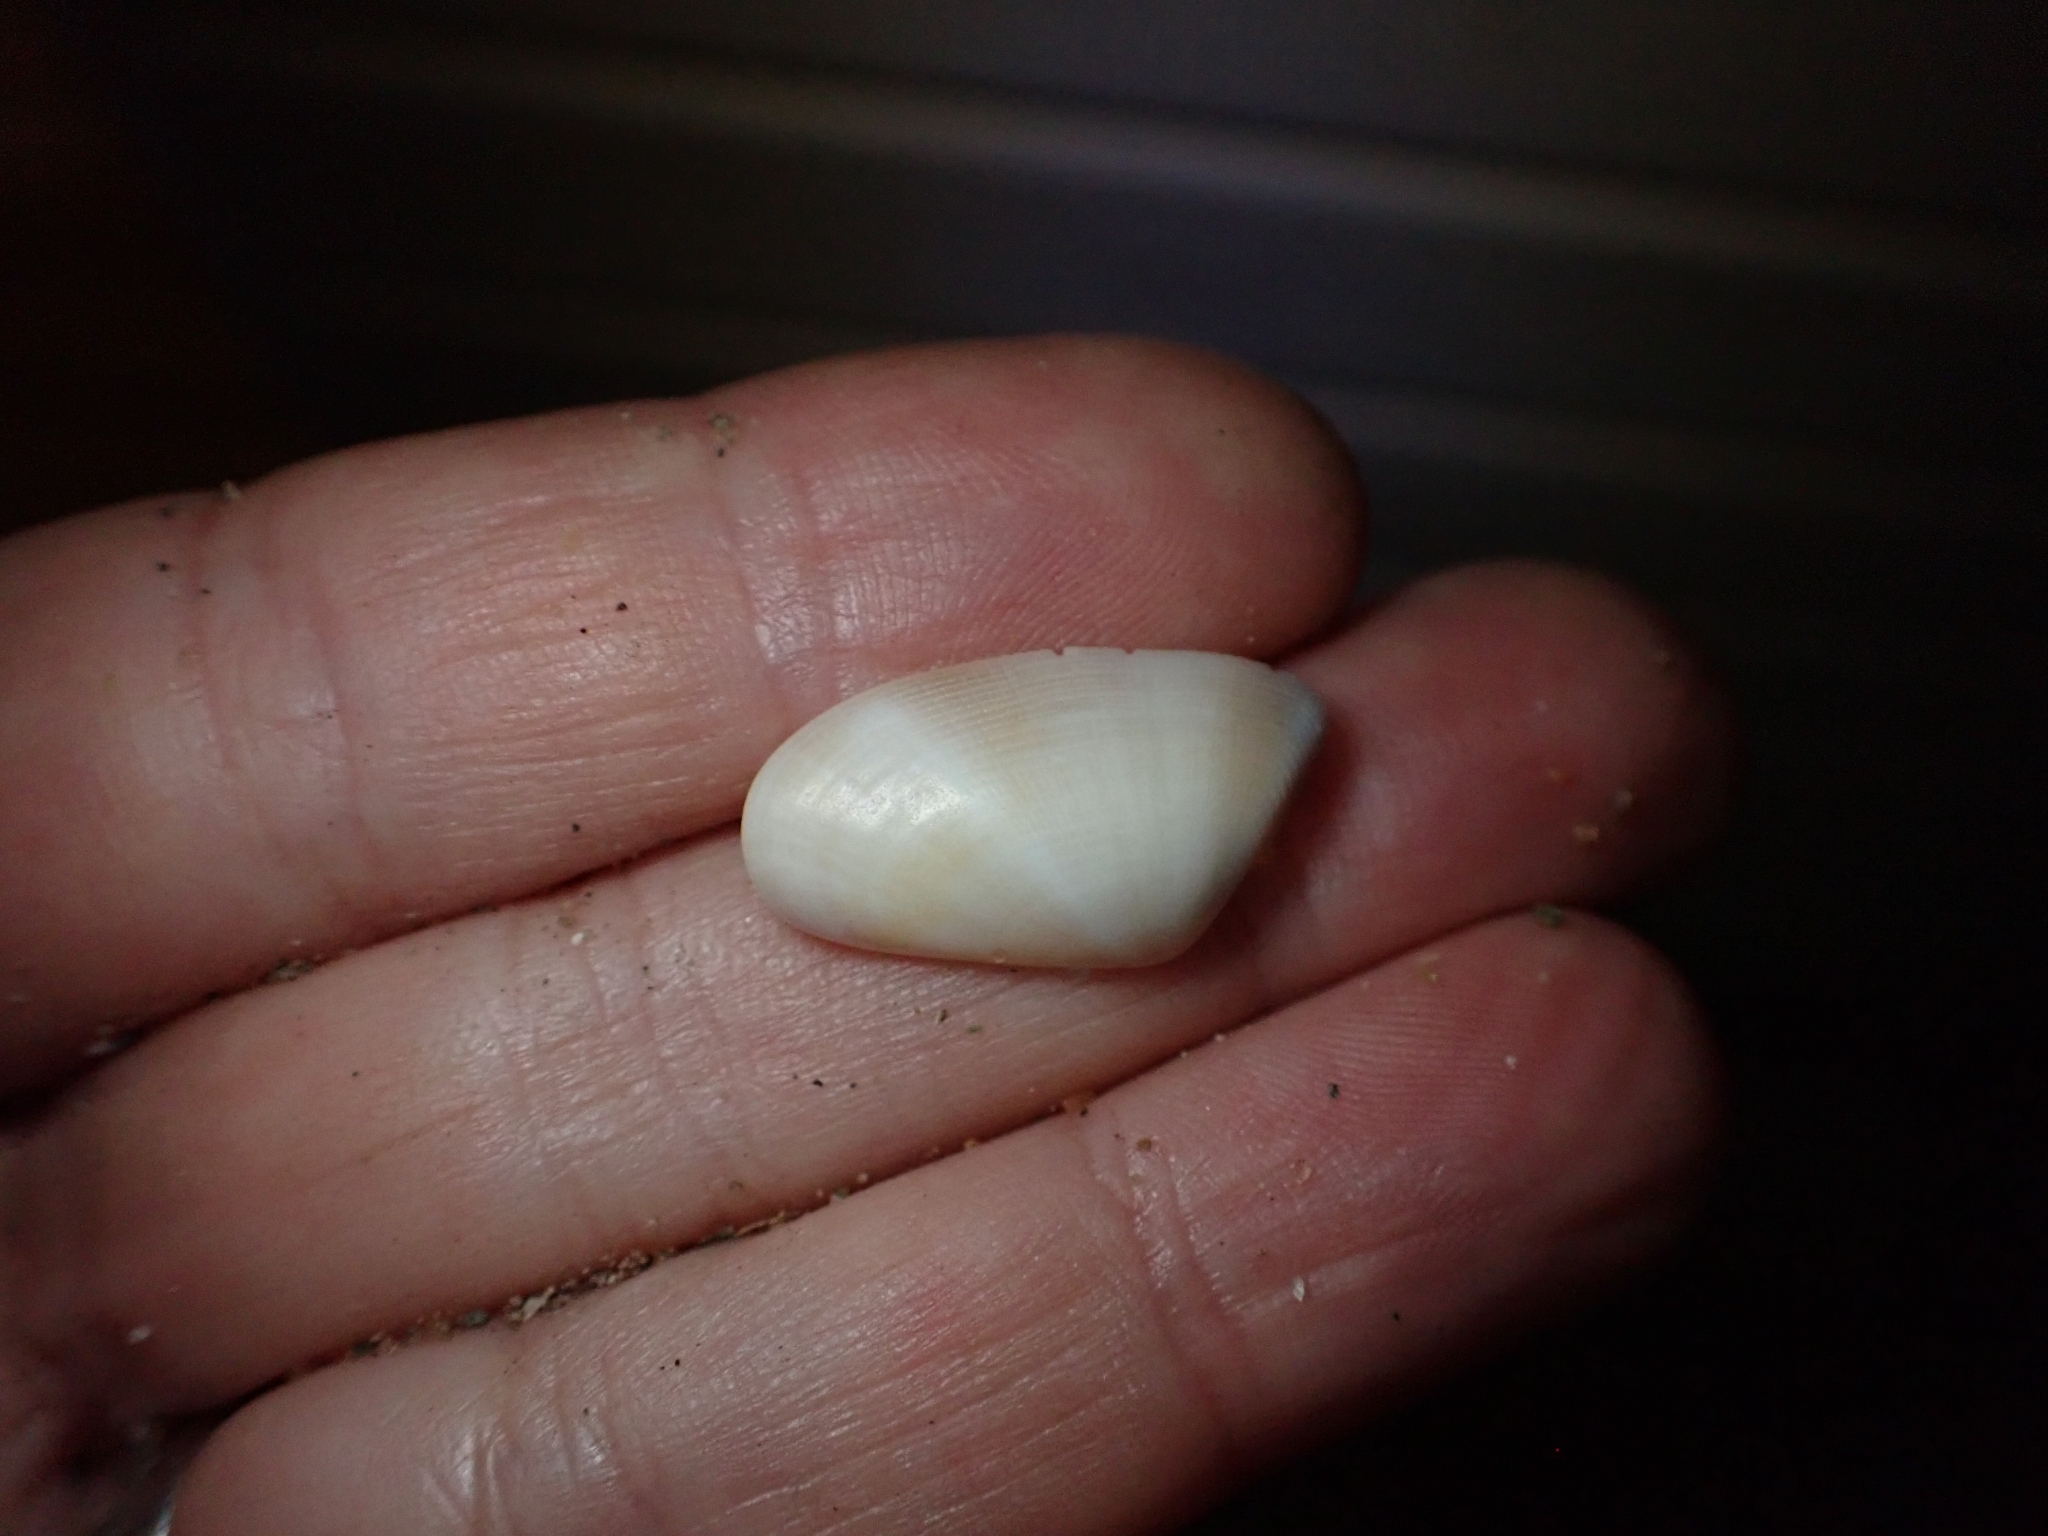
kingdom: Animalia
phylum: Mollusca
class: Bivalvia
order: Cardiida
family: Donacidae
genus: Donax
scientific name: Donax semistriatus
